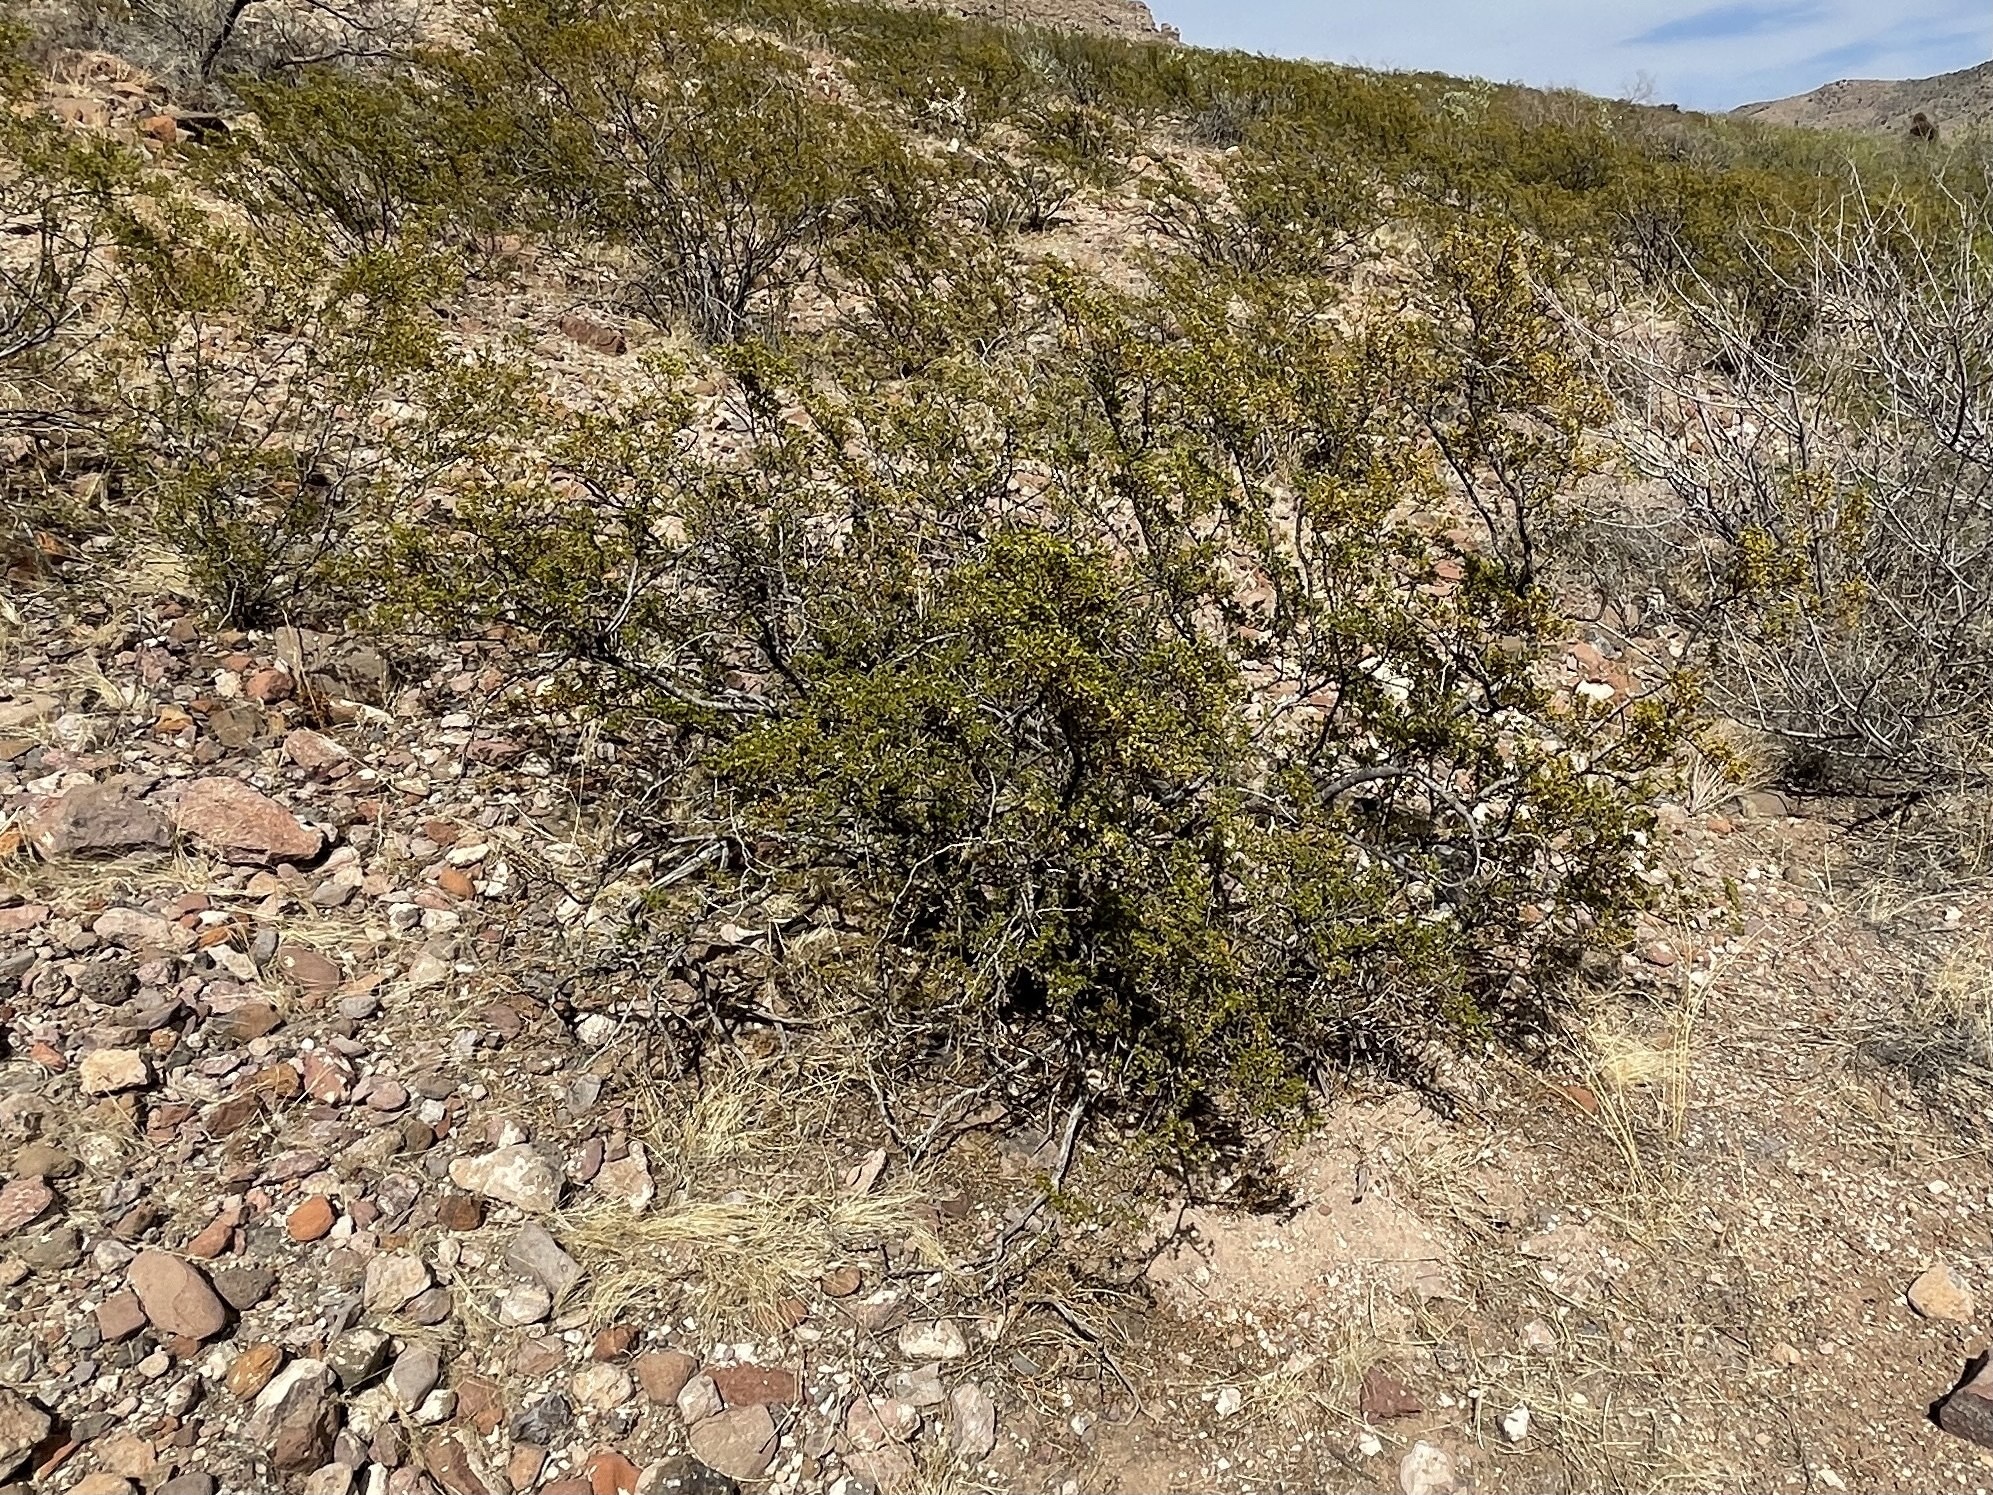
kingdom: Plantae
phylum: Tracheophyta
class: Magnoliopsida
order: Zygophyllales
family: Zygophyllaceae
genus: Larrea
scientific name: Larrea tridentata
